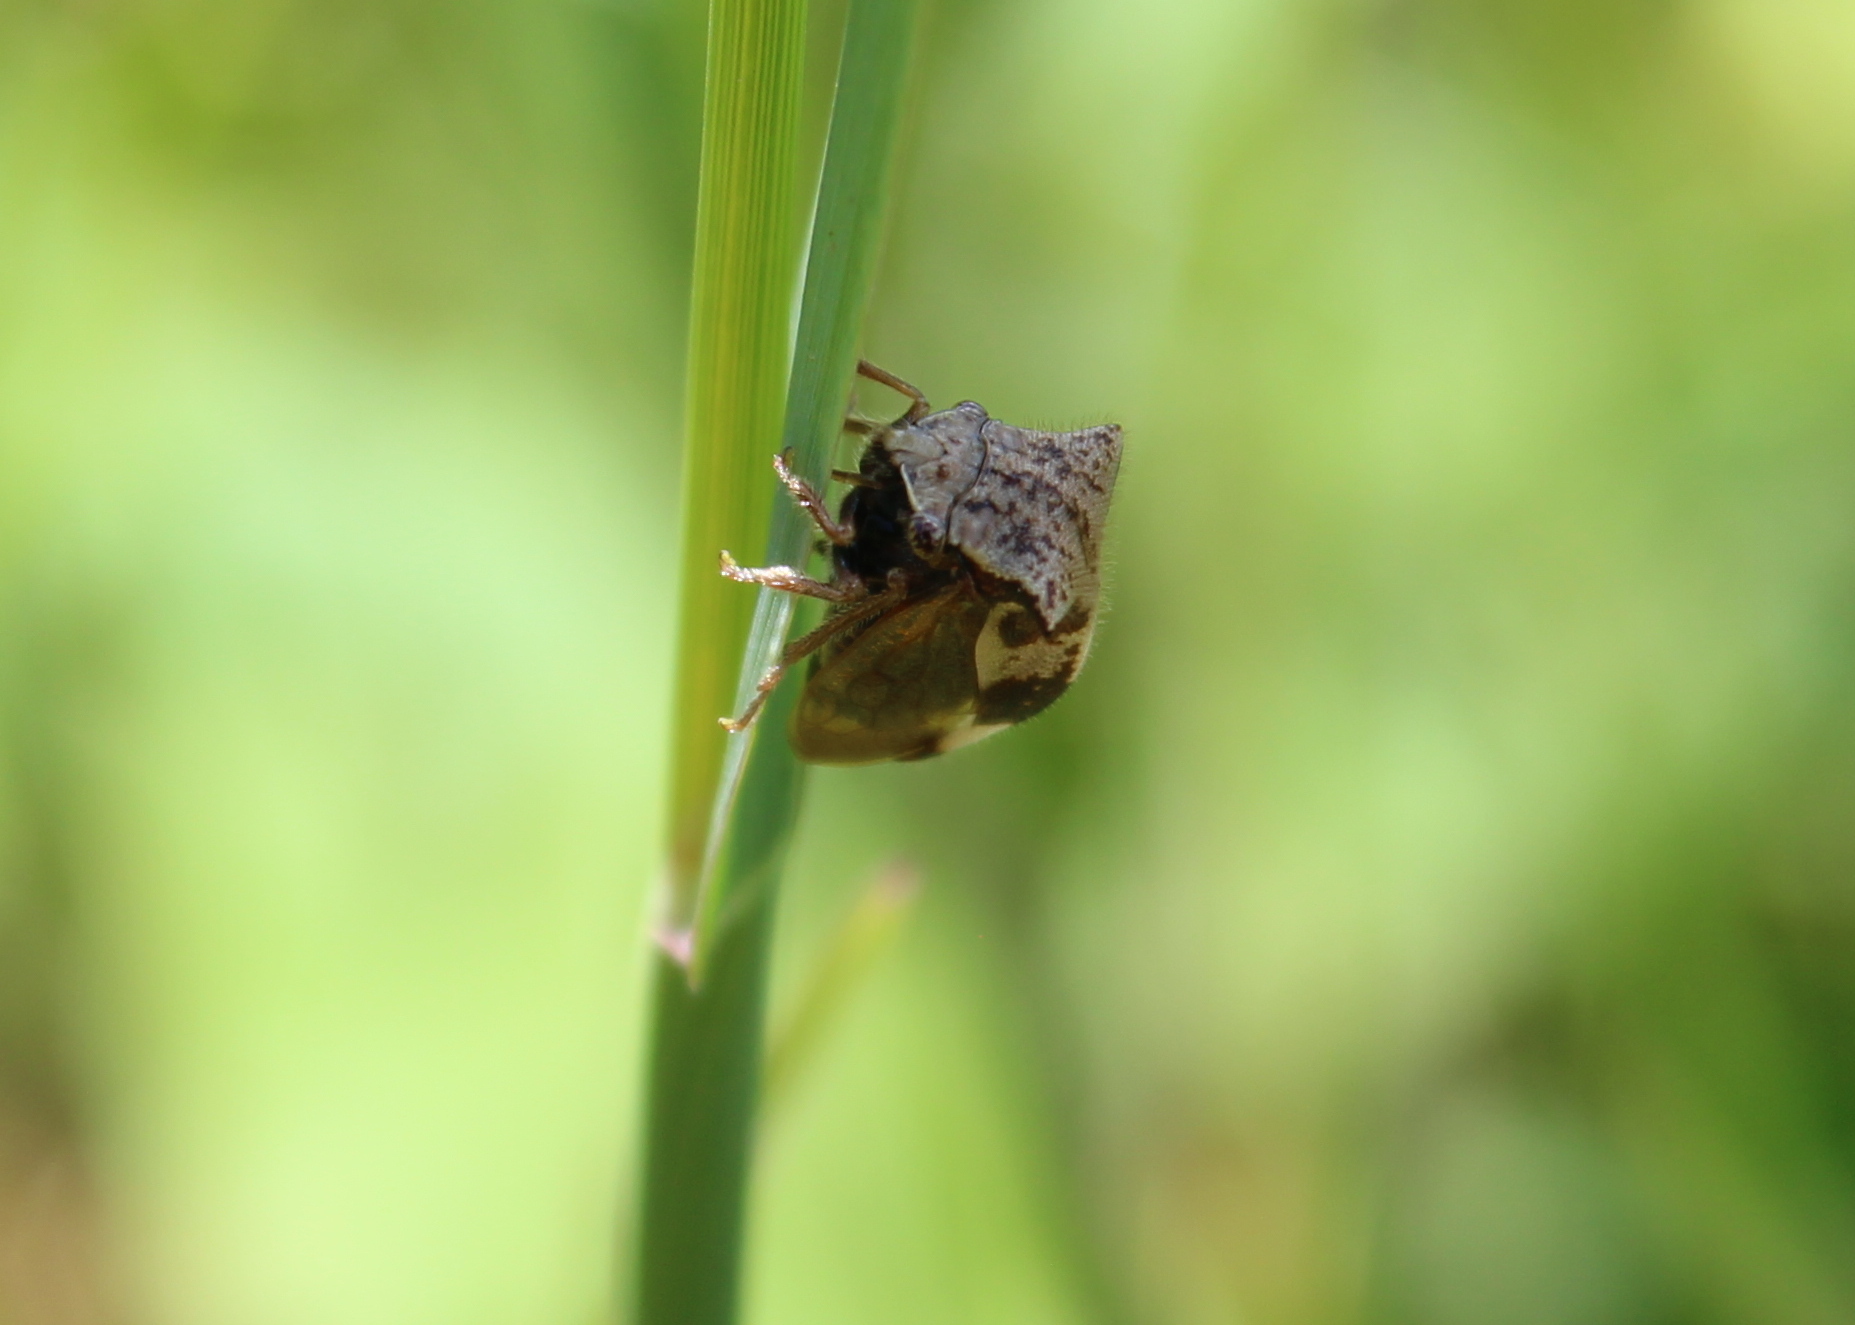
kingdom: Animalia
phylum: Arthropoda
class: Insecta
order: Hemiptera
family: Membracidae
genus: Stictocephala
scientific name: Stictocephala diceros
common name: Two-horned treehopper
